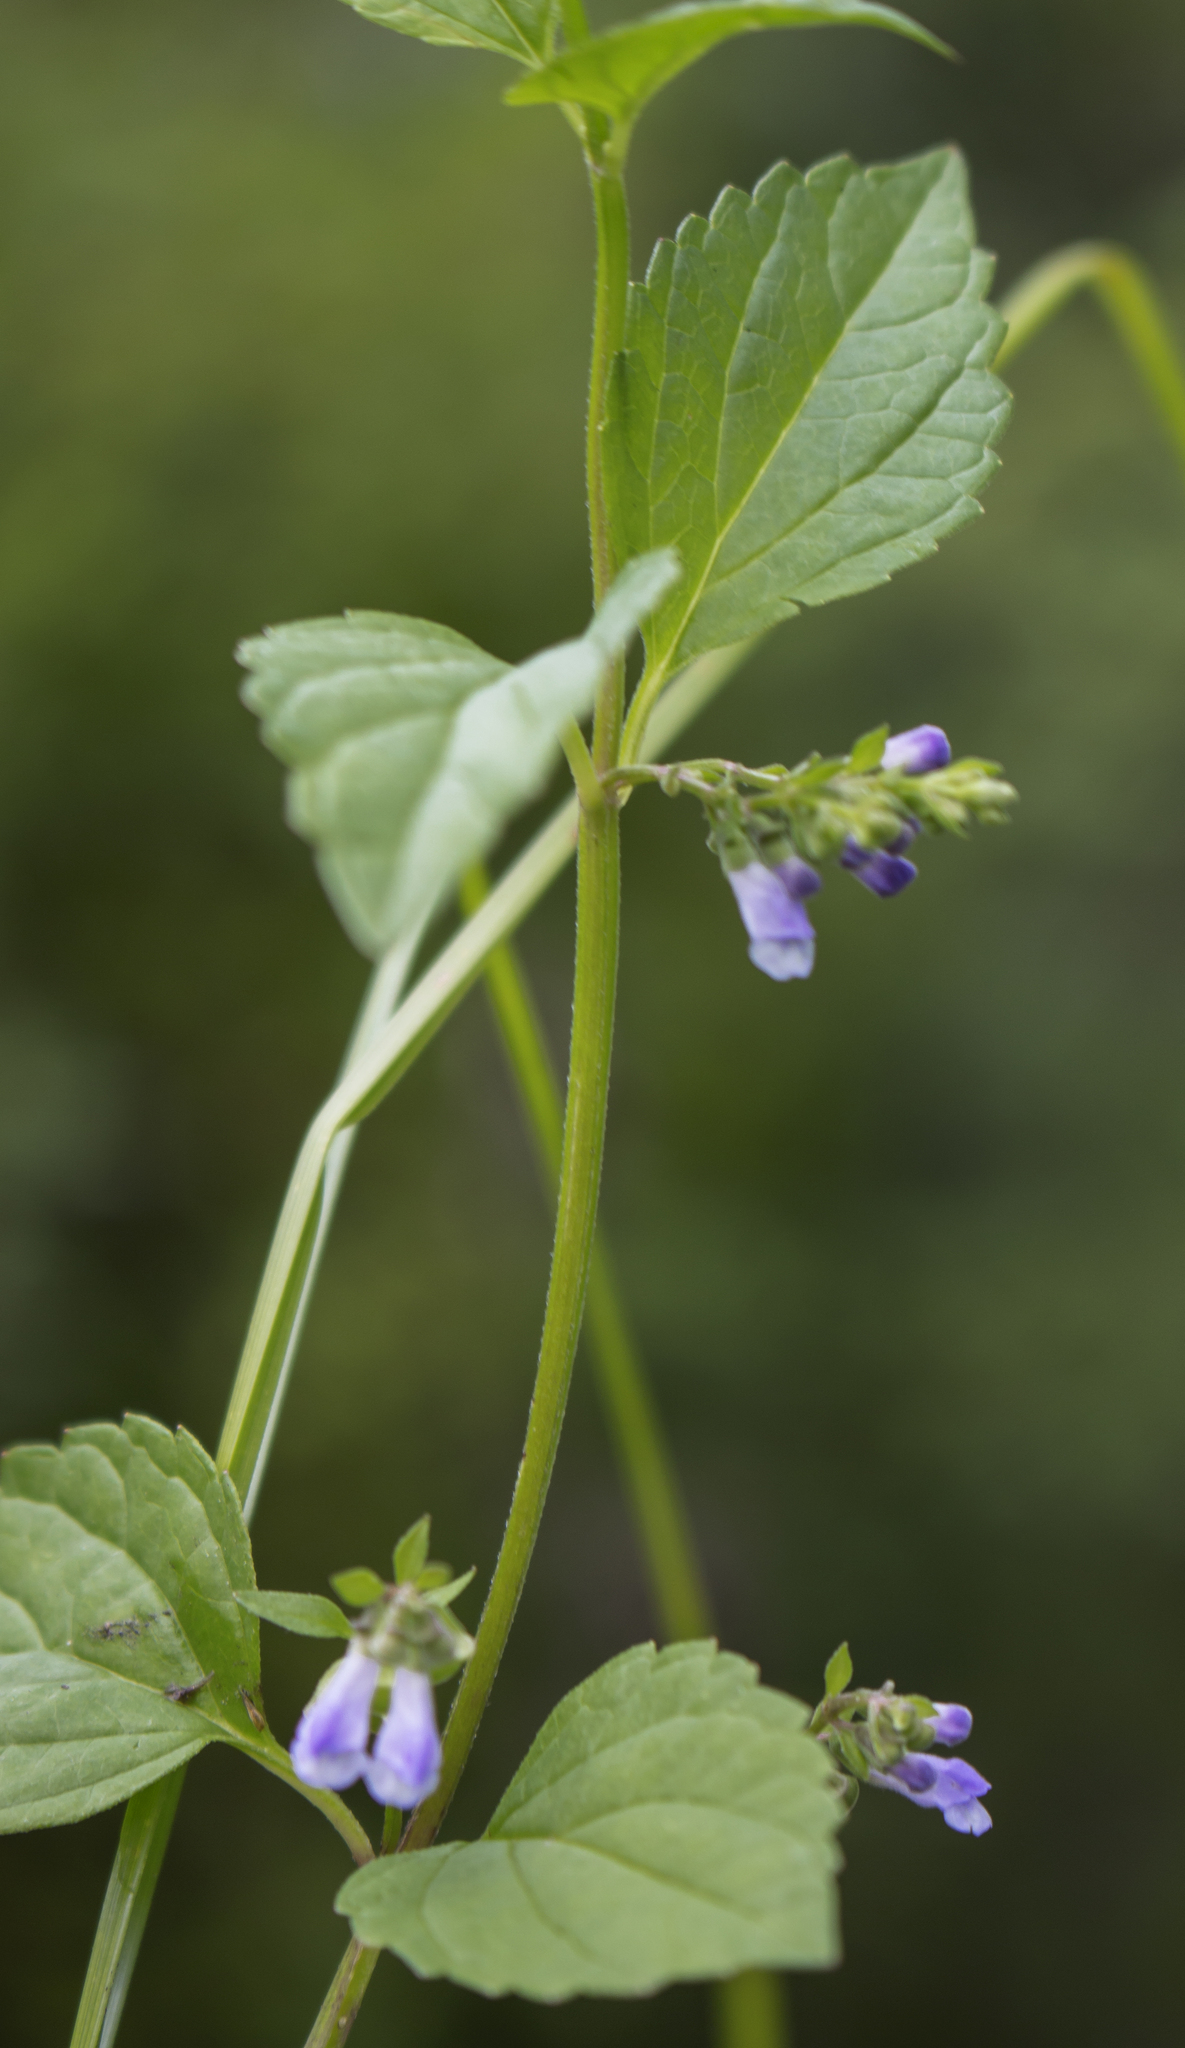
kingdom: Plantae
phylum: Tracheophyta
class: Magnoliopsida
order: Lamiales
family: Lamiaceae
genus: Scutellaria
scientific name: Scutellaria lateriflora
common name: Blue skullcap
